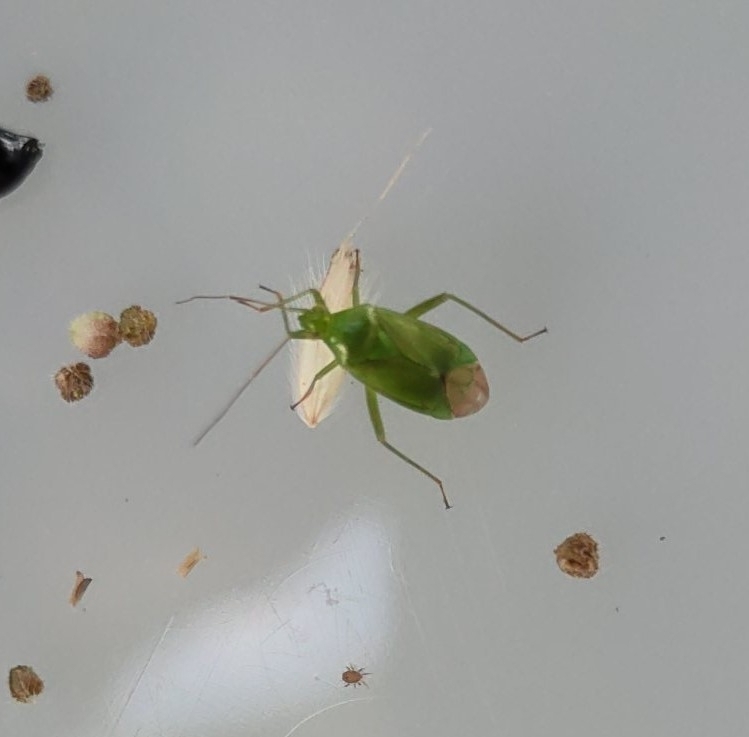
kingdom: Animalia
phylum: Arthropoda
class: Insecta
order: Hemiptera
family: Miridae
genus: Lygocoris
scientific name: Lygocoris pabulinus
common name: Common green capsid
